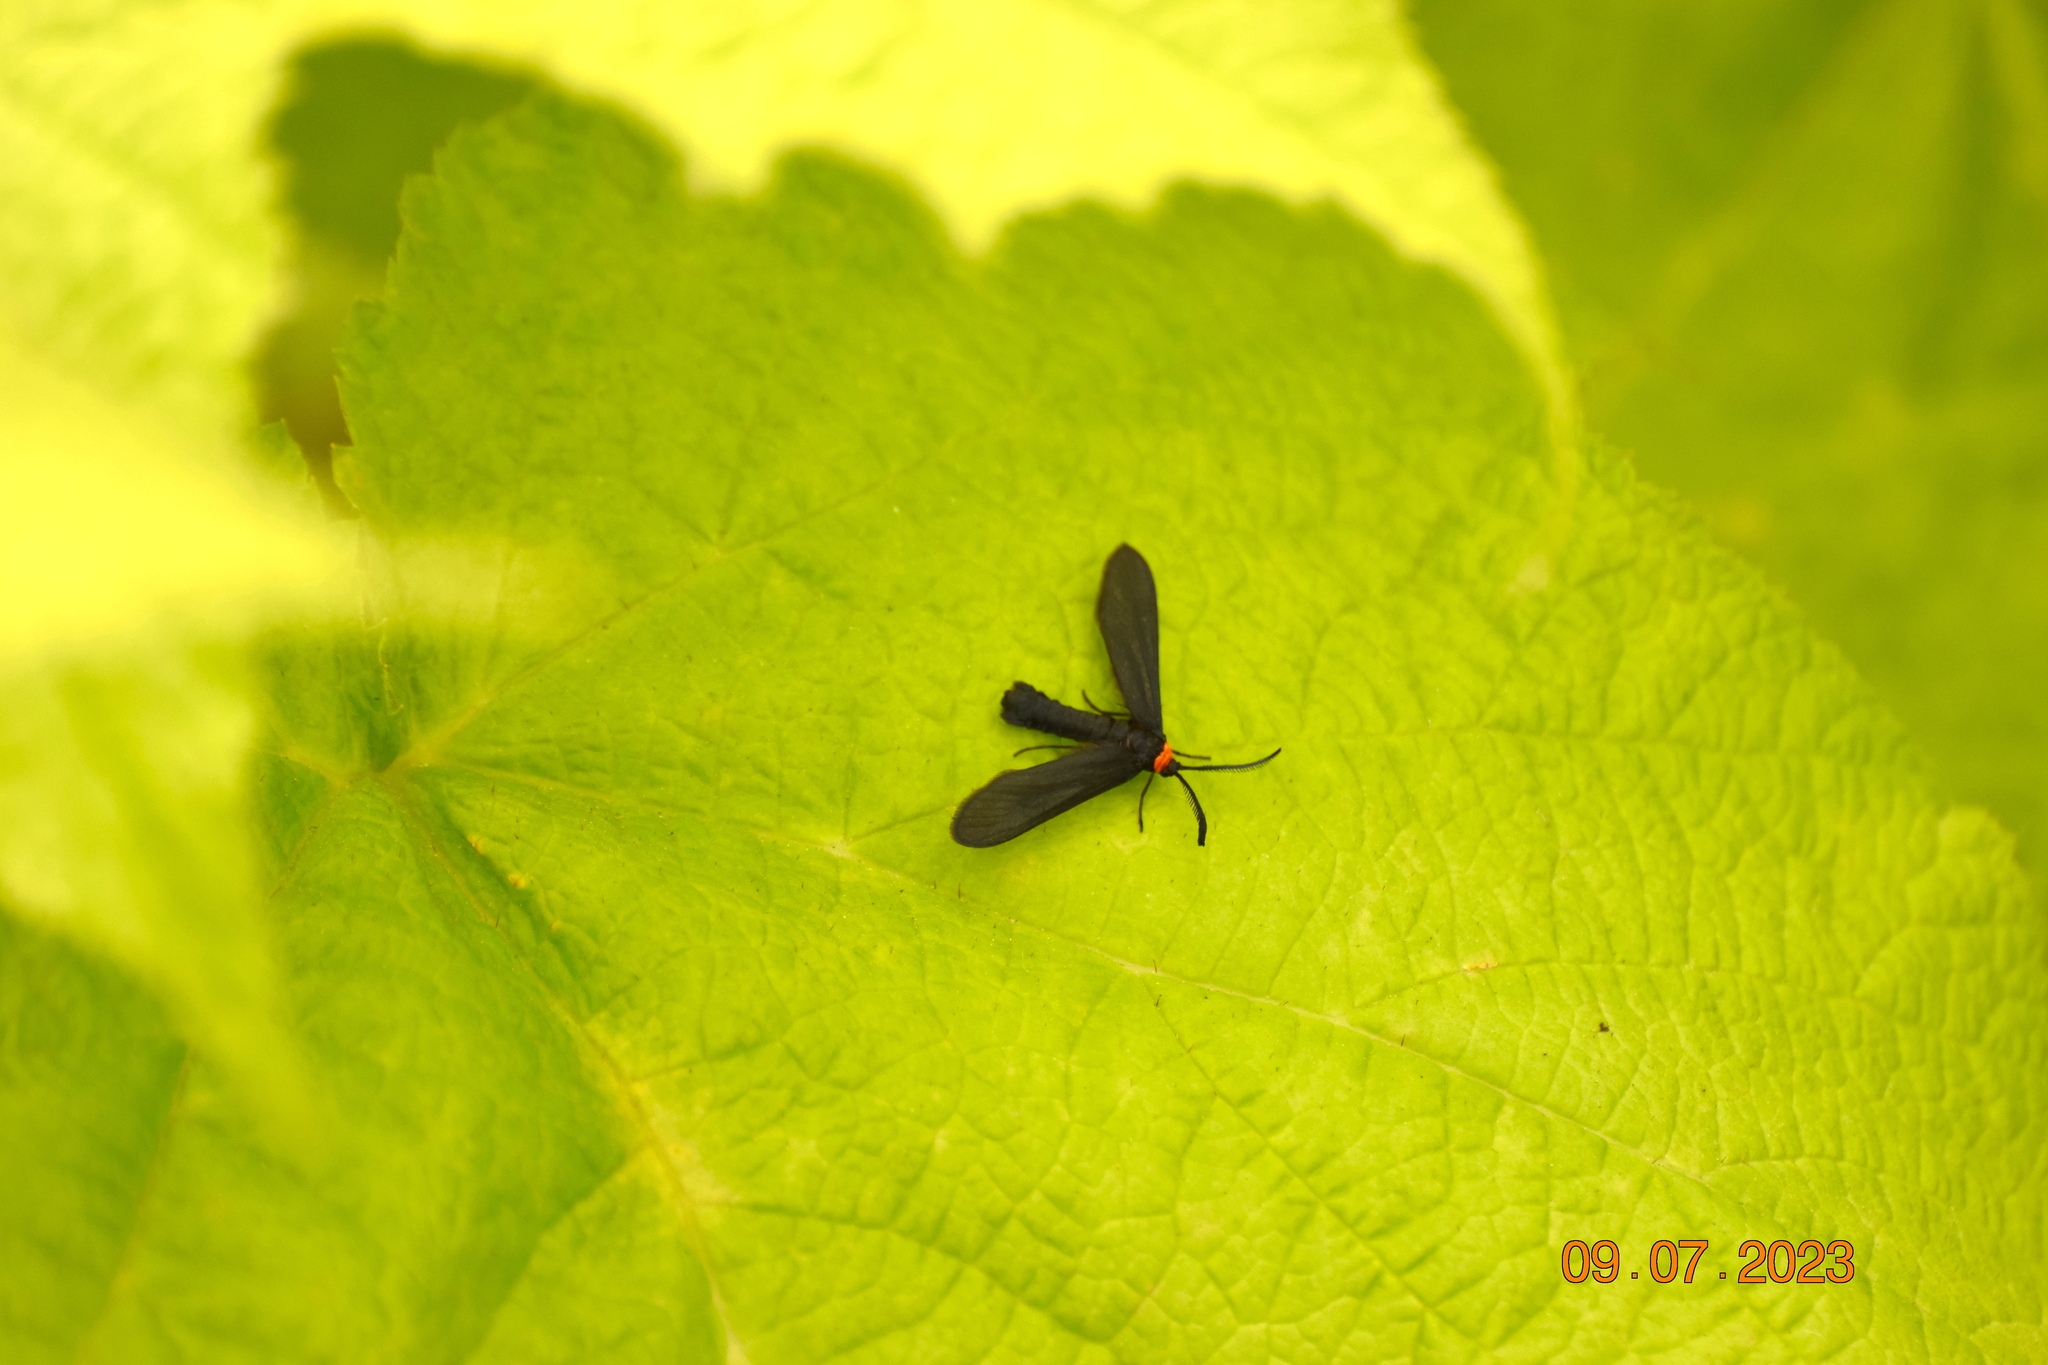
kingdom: Animalia
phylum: Arthropoda
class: Insecta
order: Lepidoptera
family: Zygaenidae
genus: Harrisina
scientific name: Harrisina americana
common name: Grapeleaf skeletonizer moth
